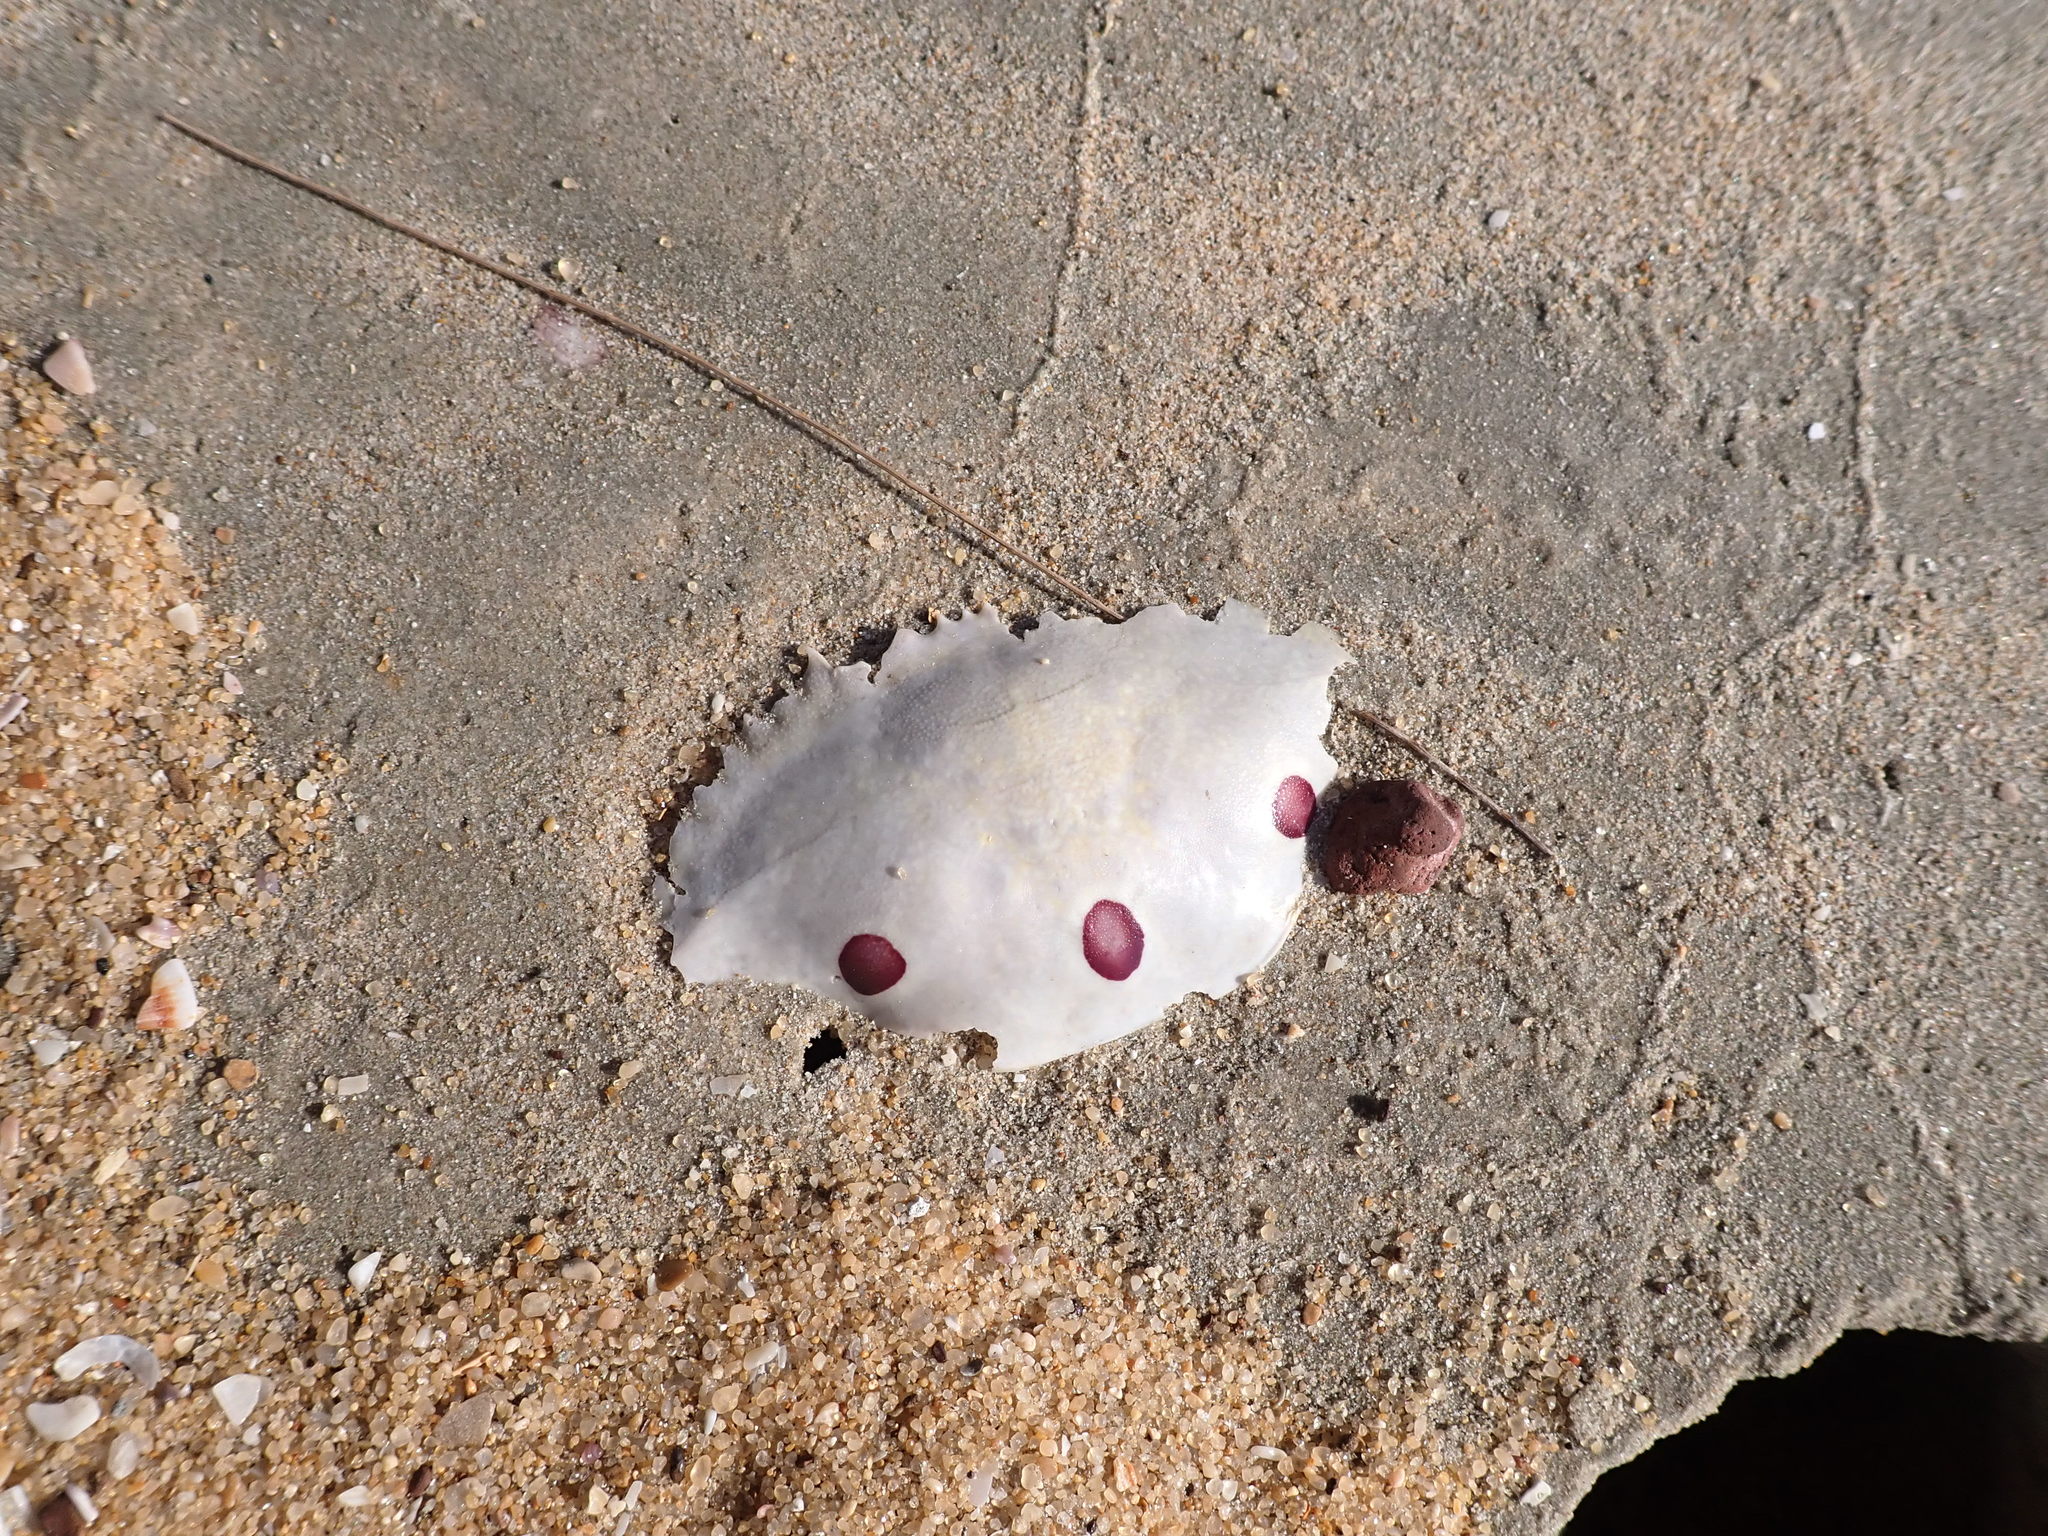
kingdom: Animalia
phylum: Arthropoda
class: Malacostraca
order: Decapoda
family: Portunidae
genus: Portunus
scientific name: Portunus sanguinolentus
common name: Blood-spotted swimming crab
